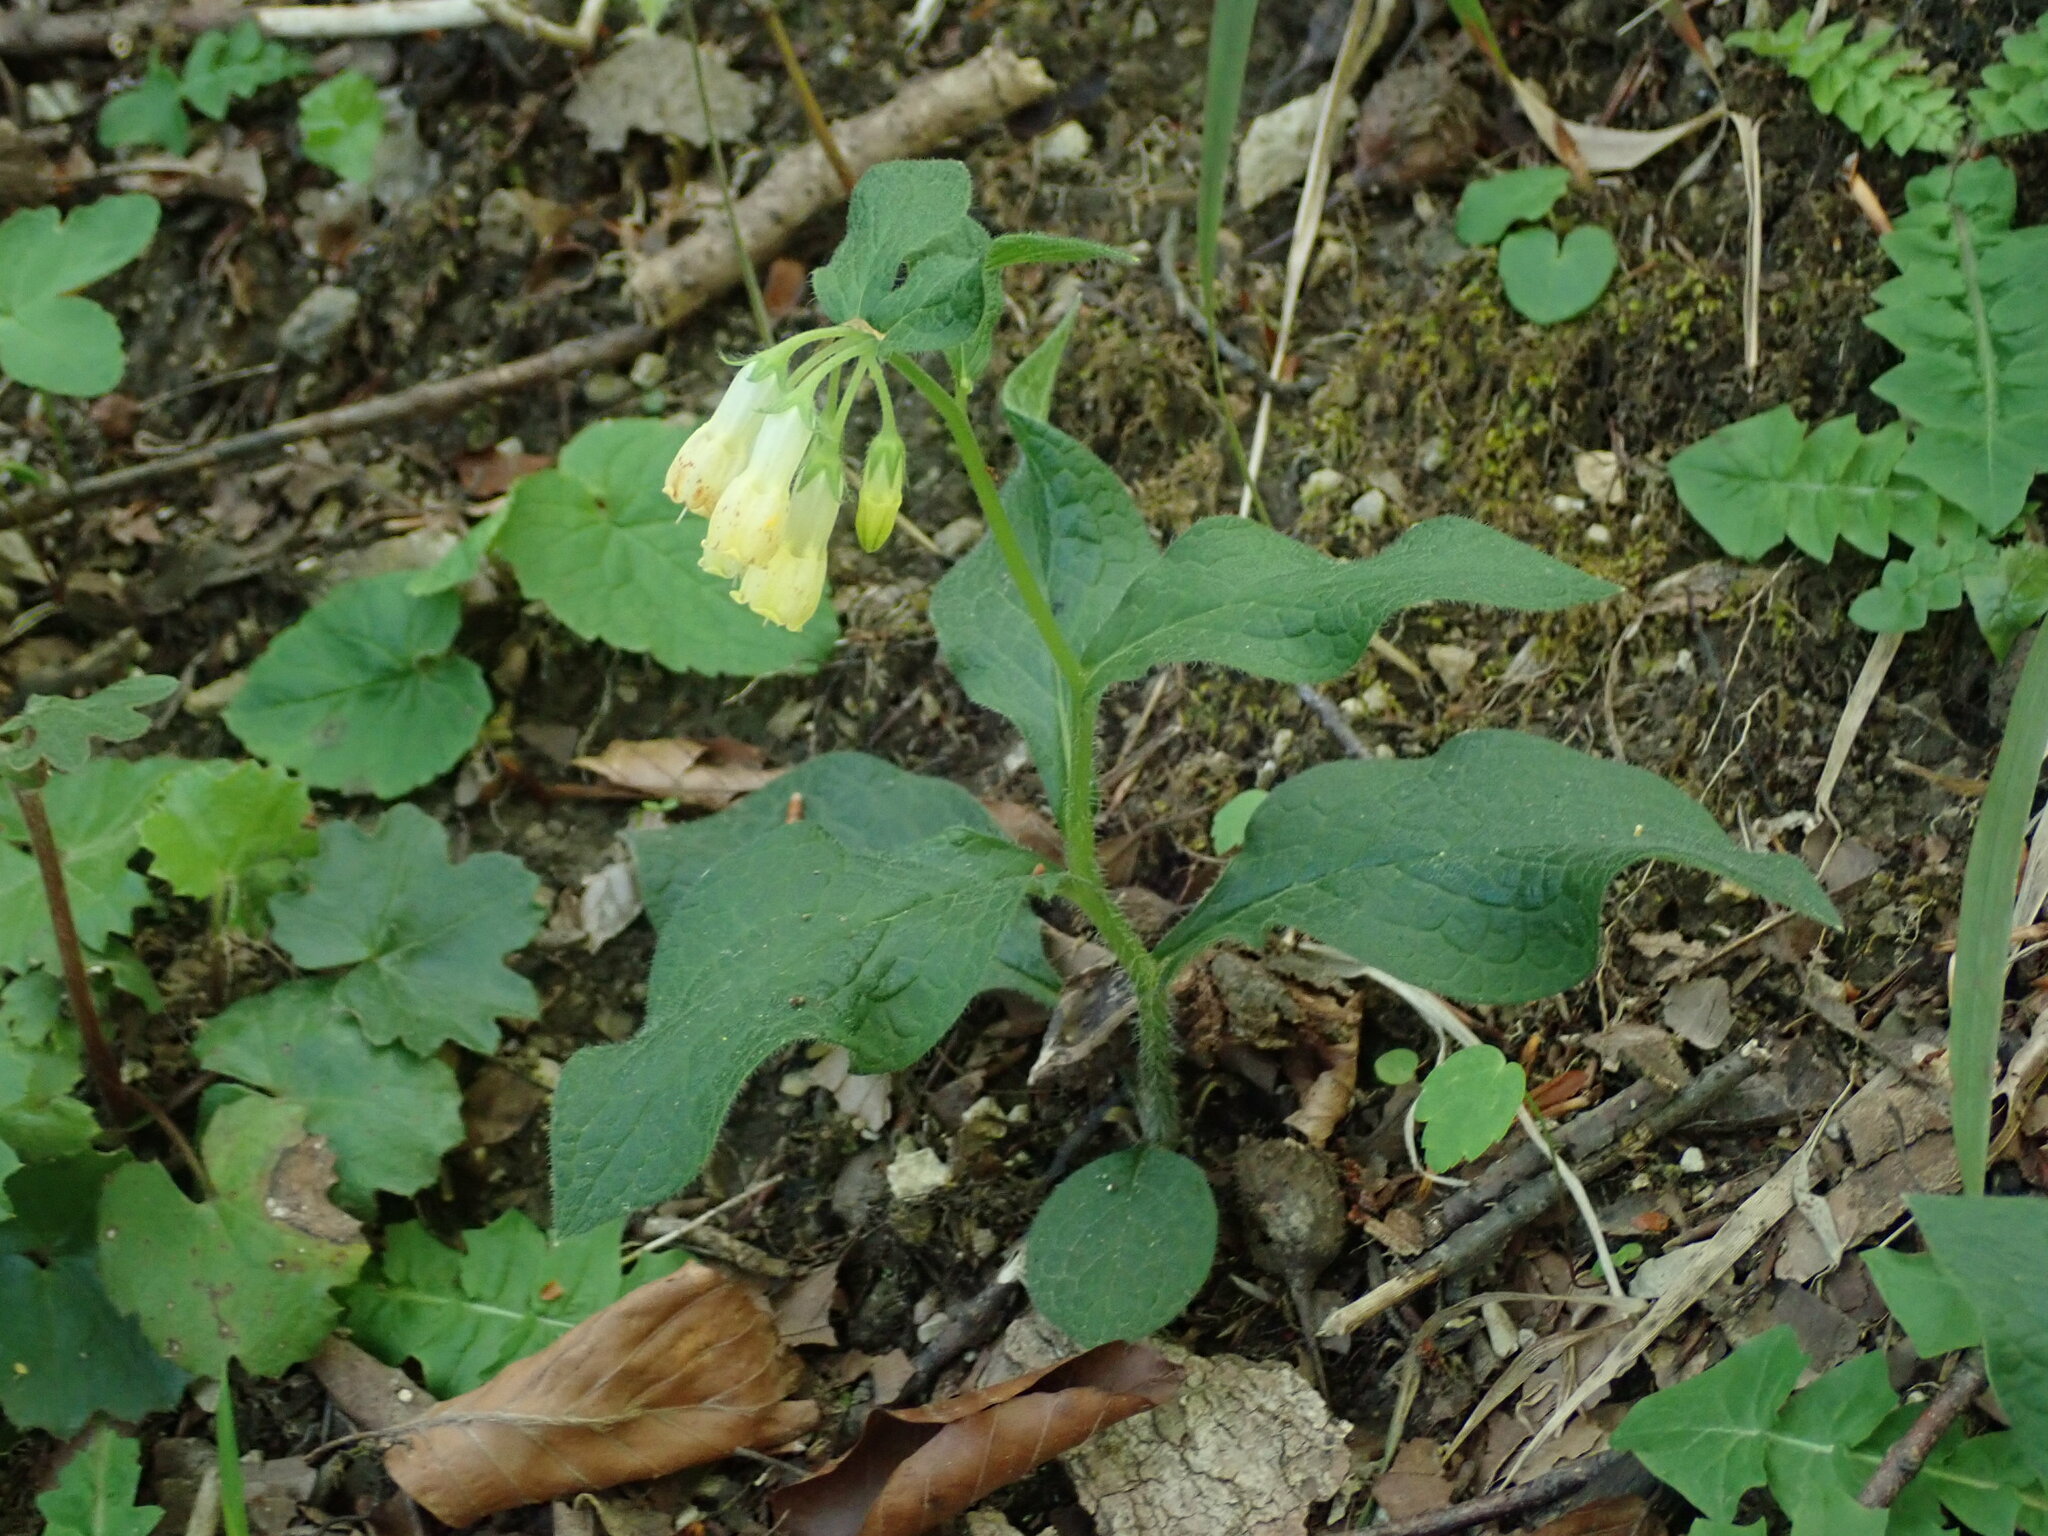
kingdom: Plantae
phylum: Tracheophyta
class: Magnoliopsida
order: Boraginales
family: Boraginaceae
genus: Symphytum
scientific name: Symphytum tuberosum
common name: Tuberous comfrey
